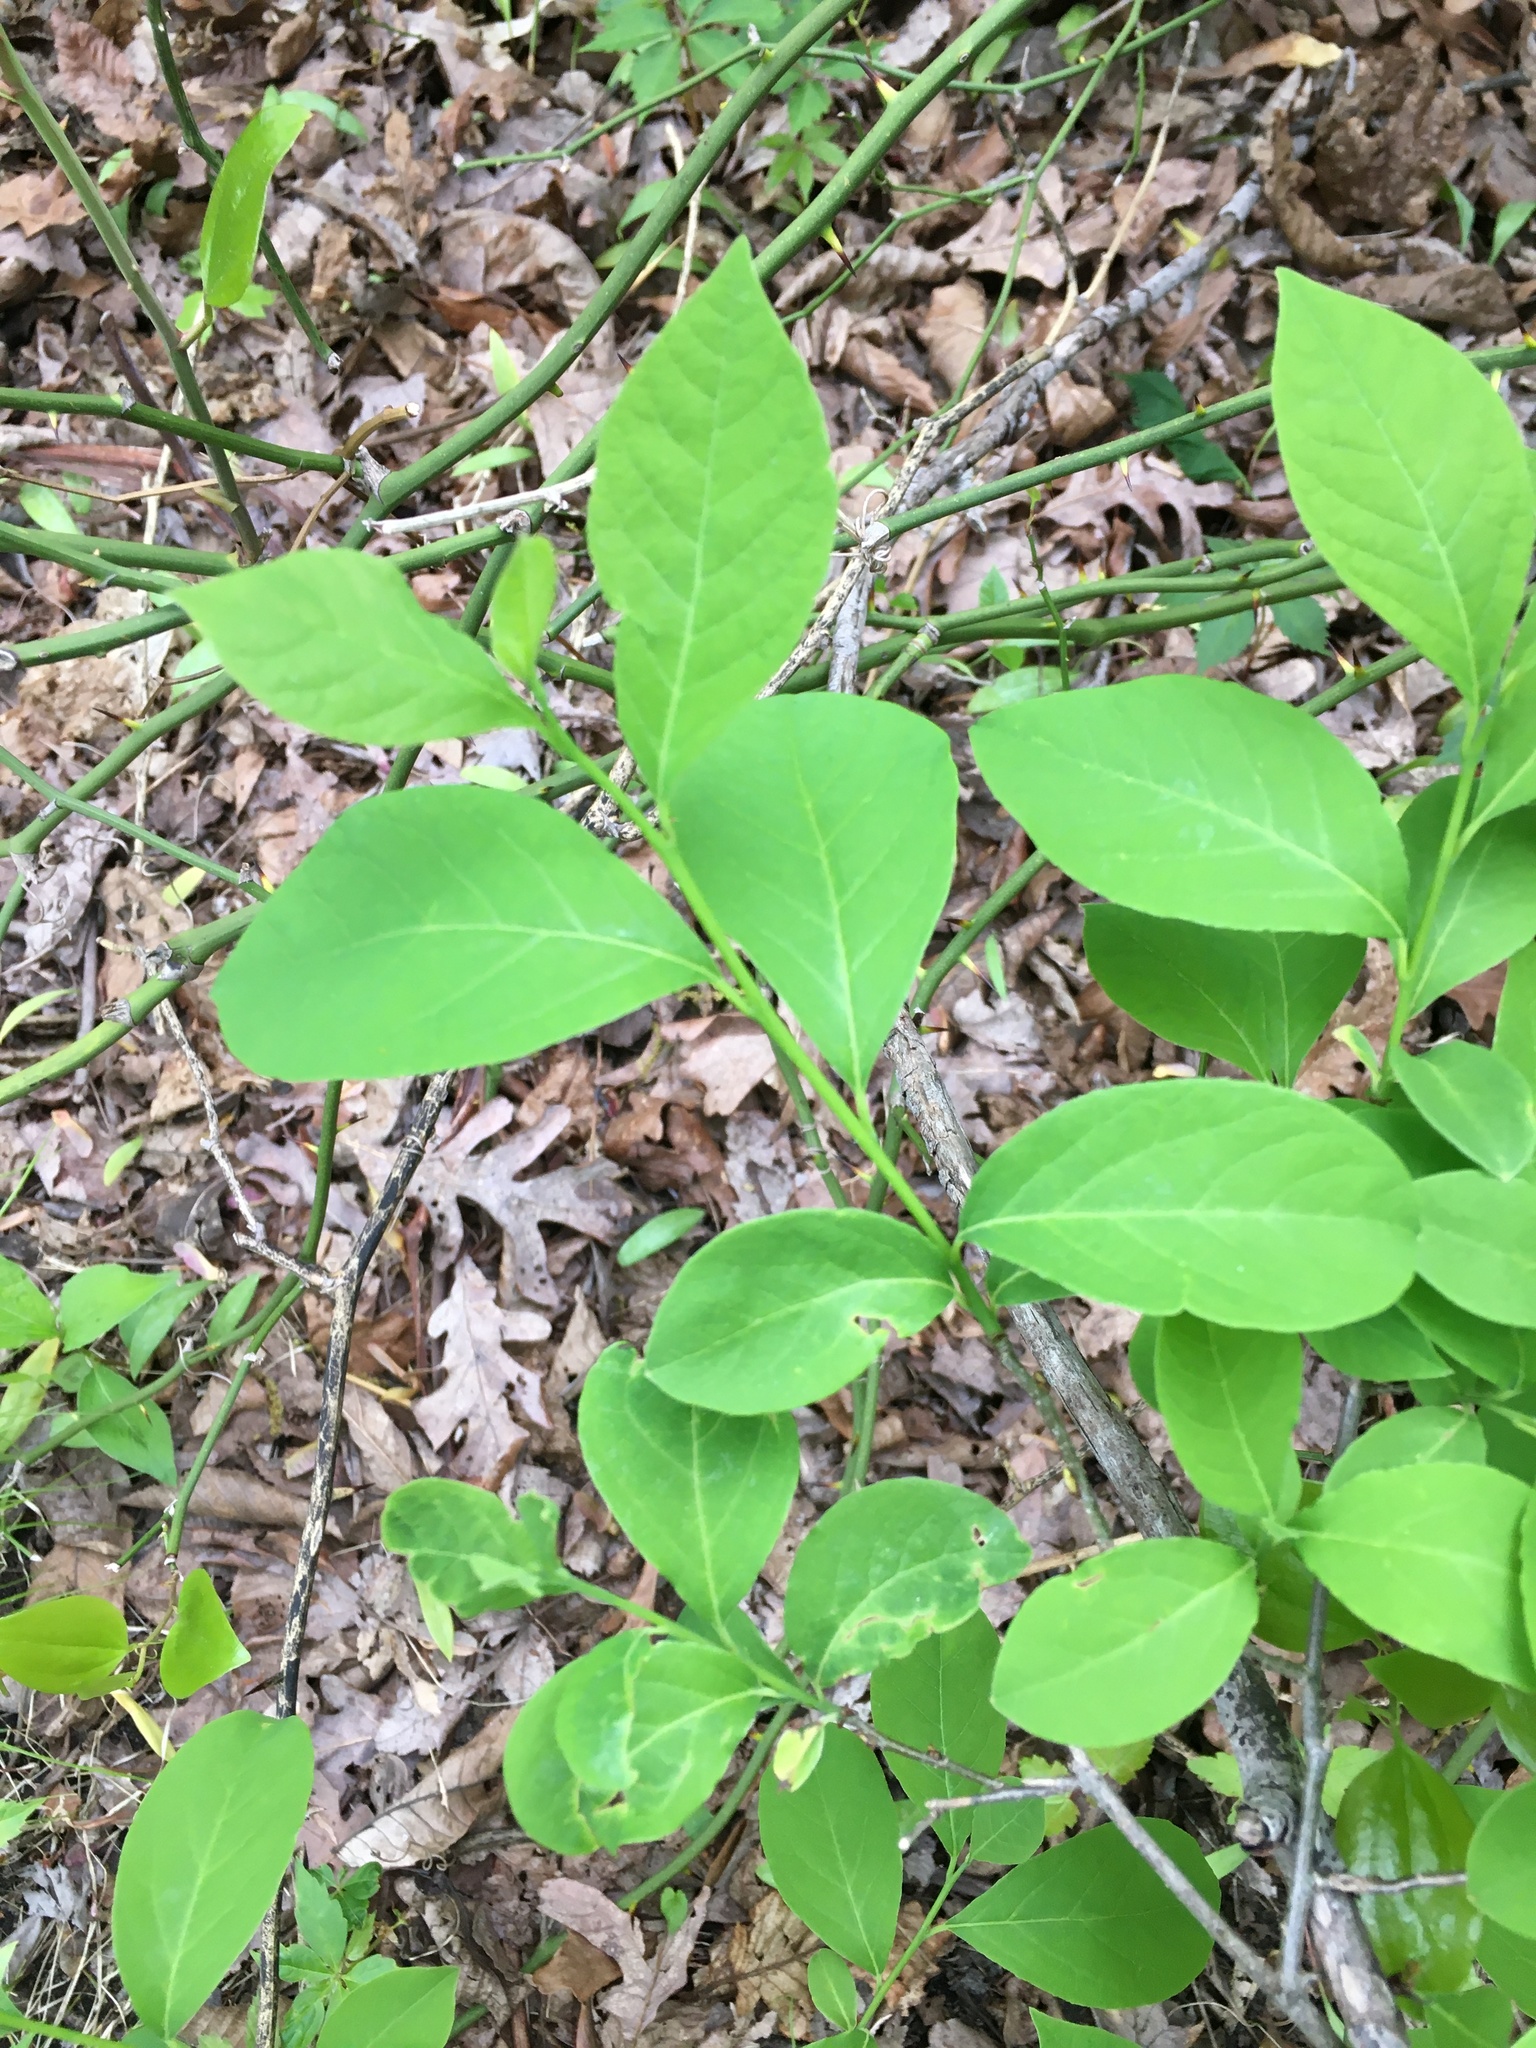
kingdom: Plantae
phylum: Tracheophyta
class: Magnoliopsida
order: Laurales
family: Lauraceae
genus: Lindera
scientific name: Lindera benzoin
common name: Spicebush
